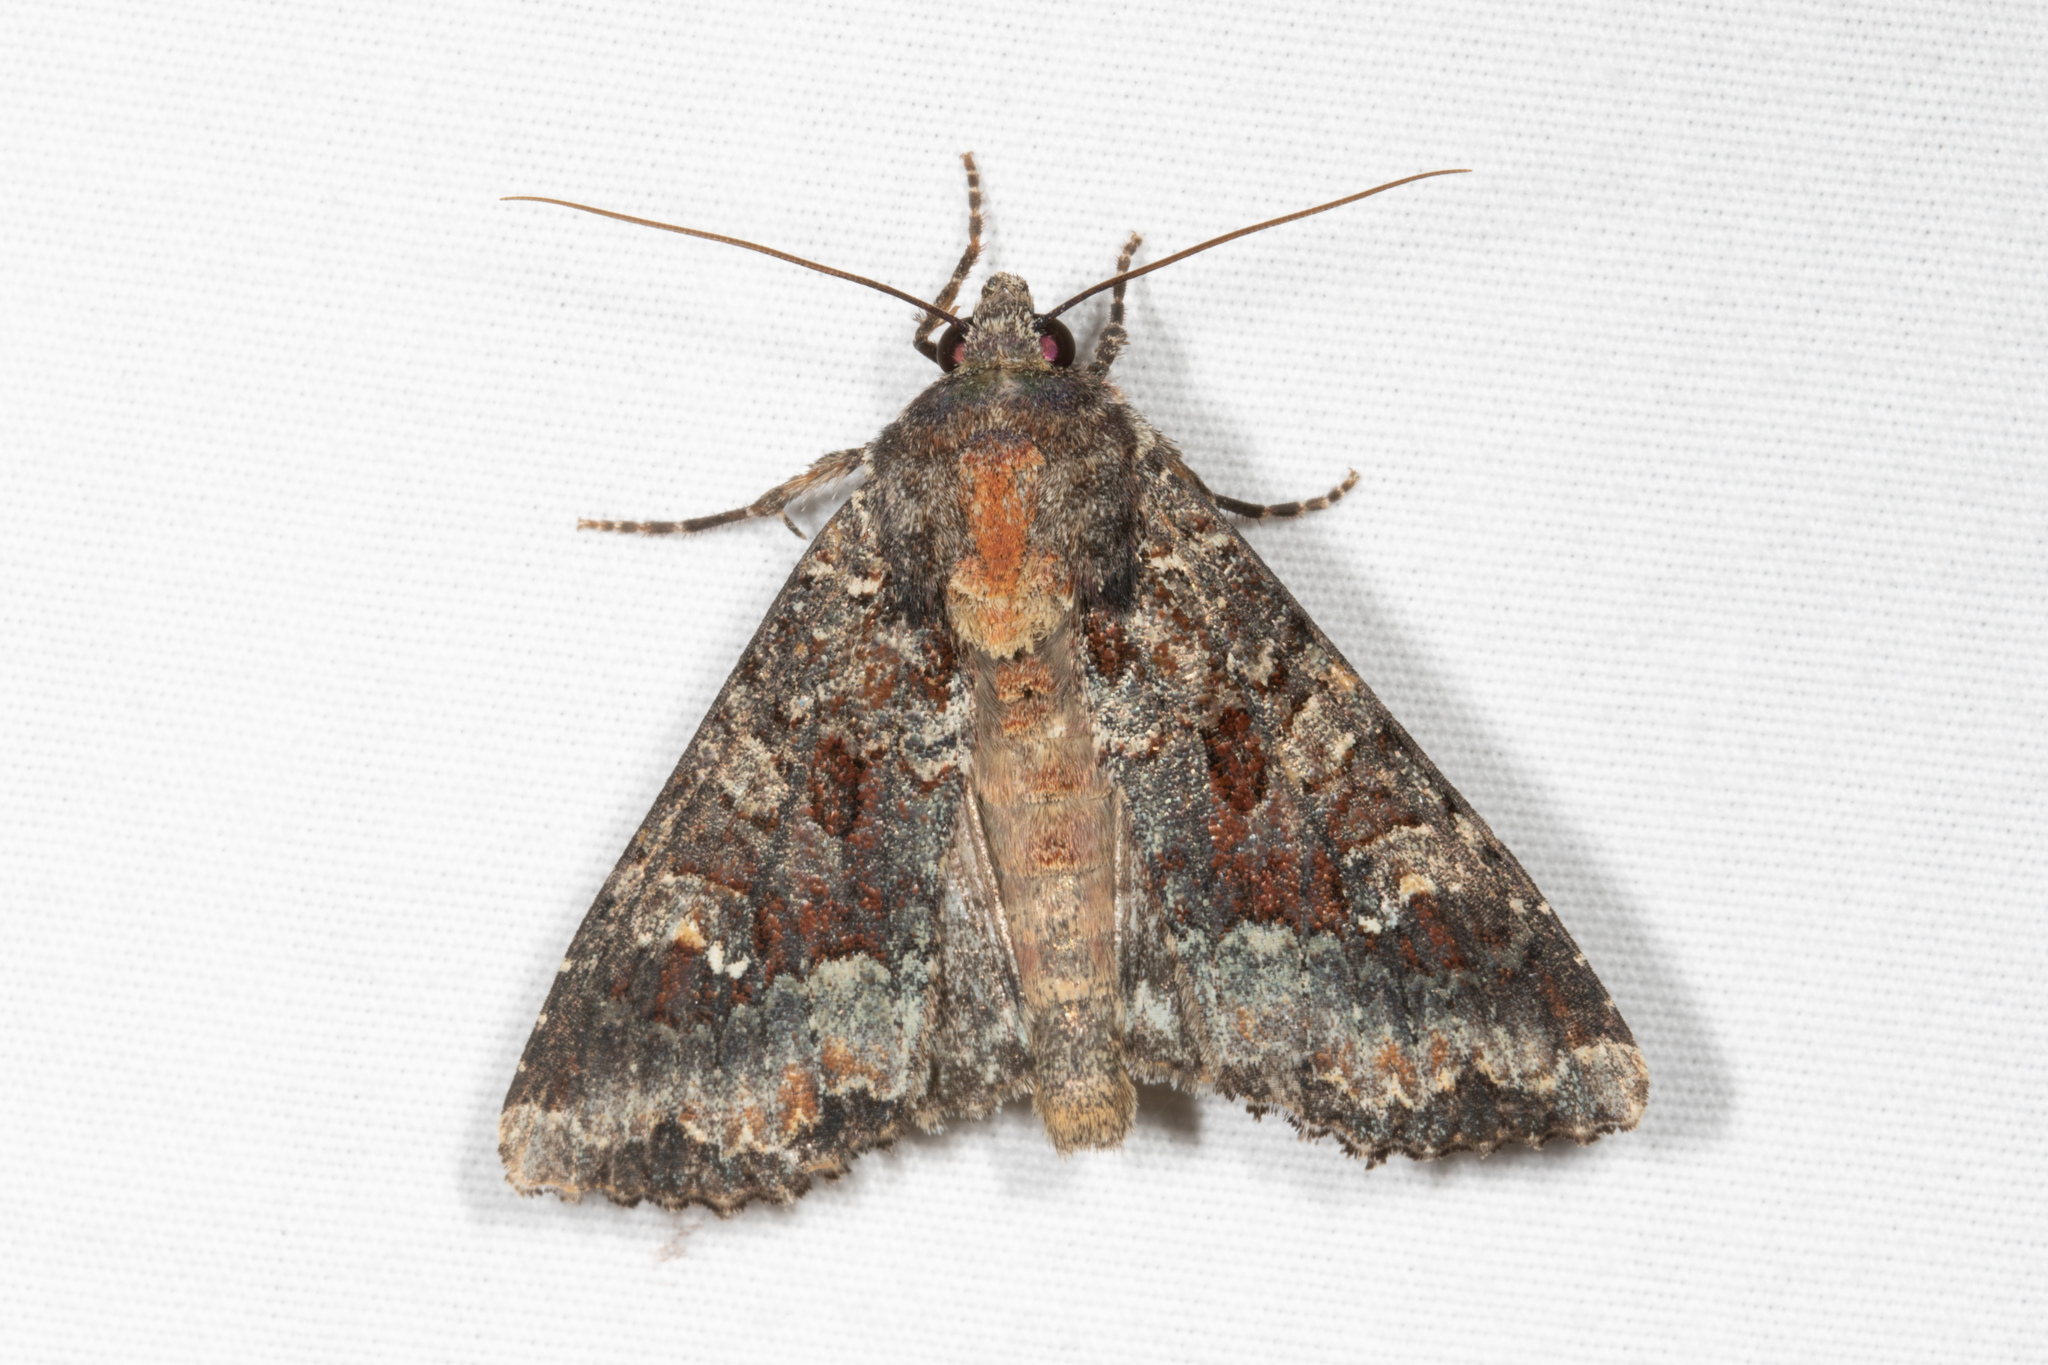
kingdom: Animalia
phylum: Arthropoda
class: Insecta
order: Lepidoptera
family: Noctuidae
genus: Apamea
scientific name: Apamea amputatrix
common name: Yellow-headed cutworm moth
